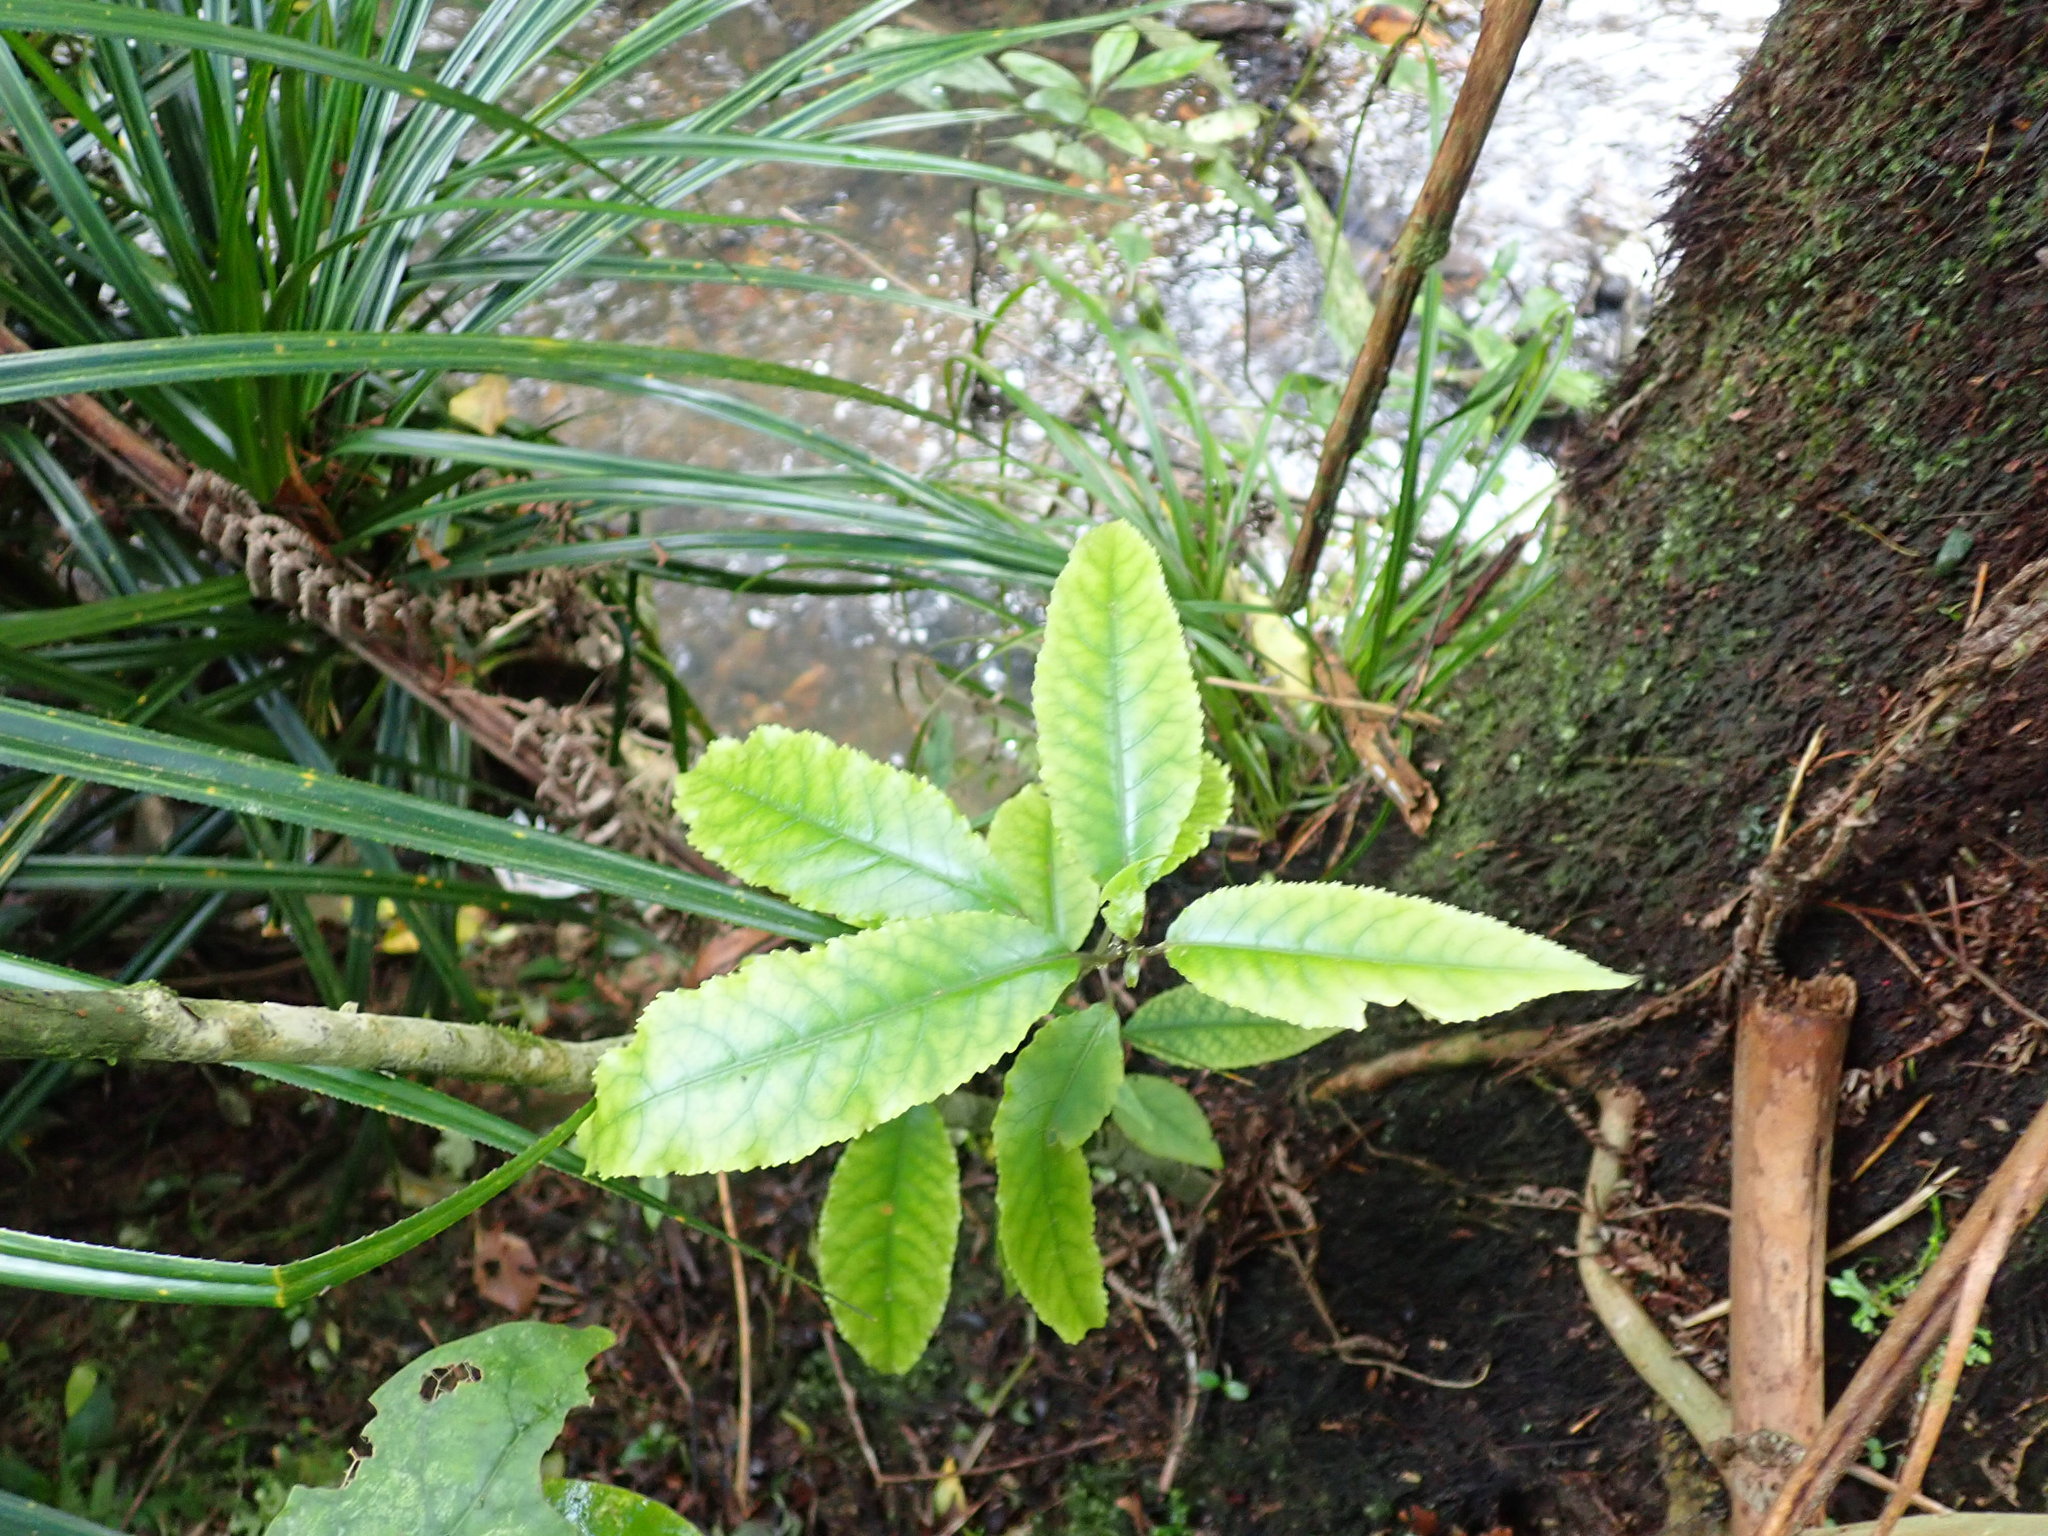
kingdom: Plantae
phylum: Tracheophyta
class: Magnoliopsida
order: Malpighiales
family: Violaceae
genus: Melicytus
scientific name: Melicytus ramiflorus
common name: Mahoe
